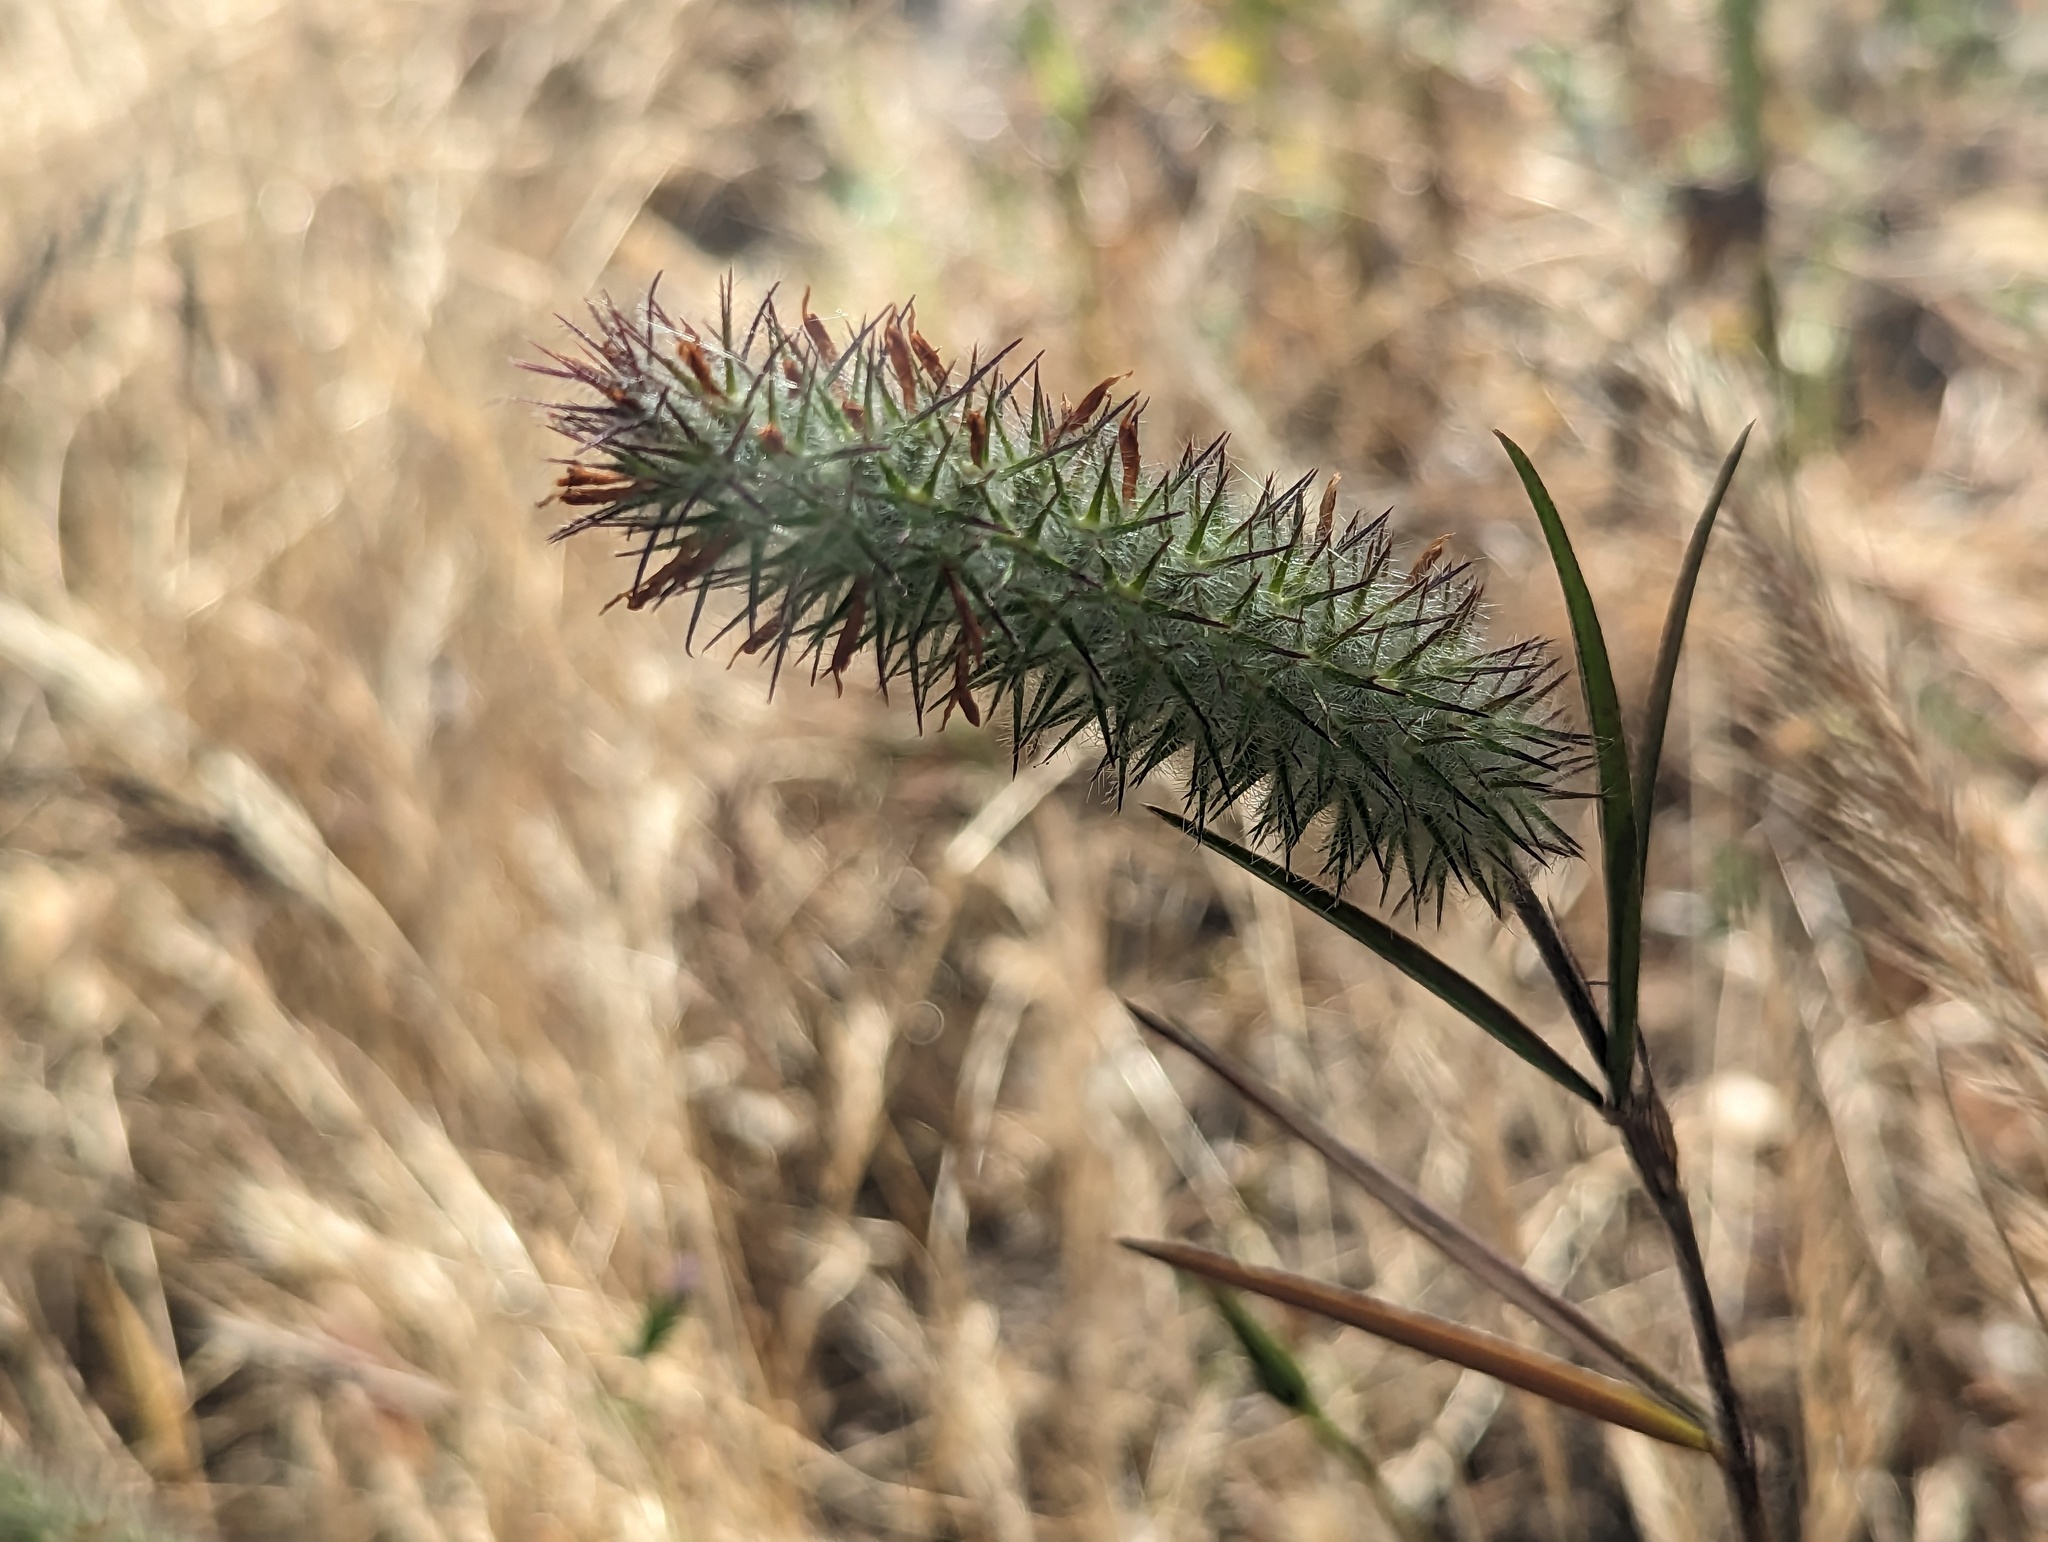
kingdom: Plantae
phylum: Tracheophyta
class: Magnoliopsida
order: Fabales
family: Fabaceae
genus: Trifolium
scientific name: Trifolium angustifolium
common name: Narrow clover
